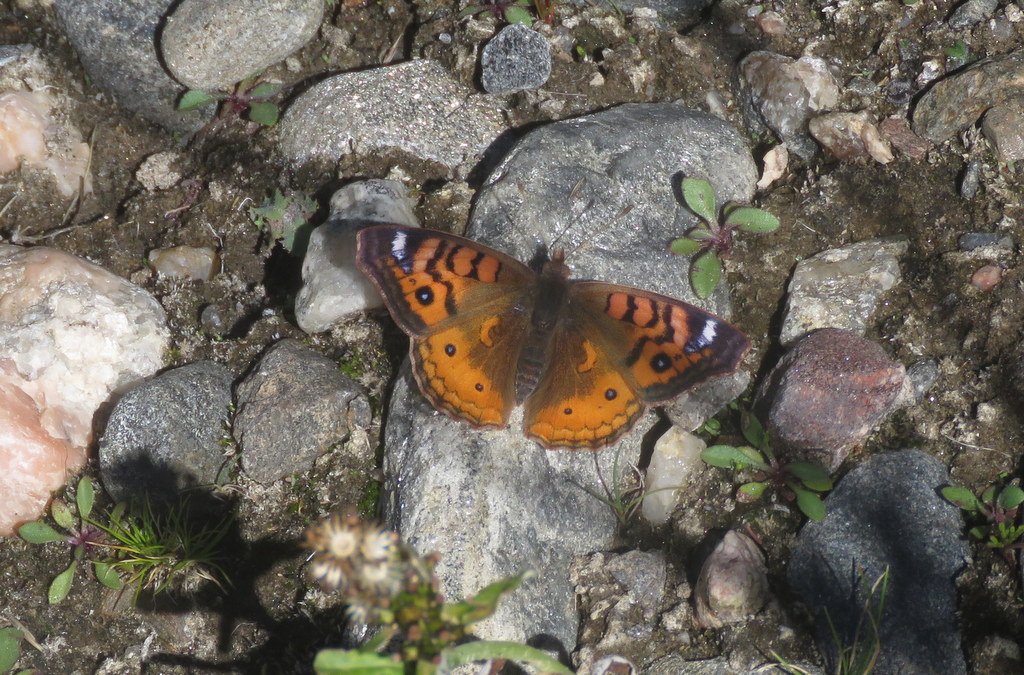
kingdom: Animalia
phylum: Arthropoda
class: Insecta
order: Lepidoptera
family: Nymphalidae
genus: Junonia
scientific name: Junonia vestina
